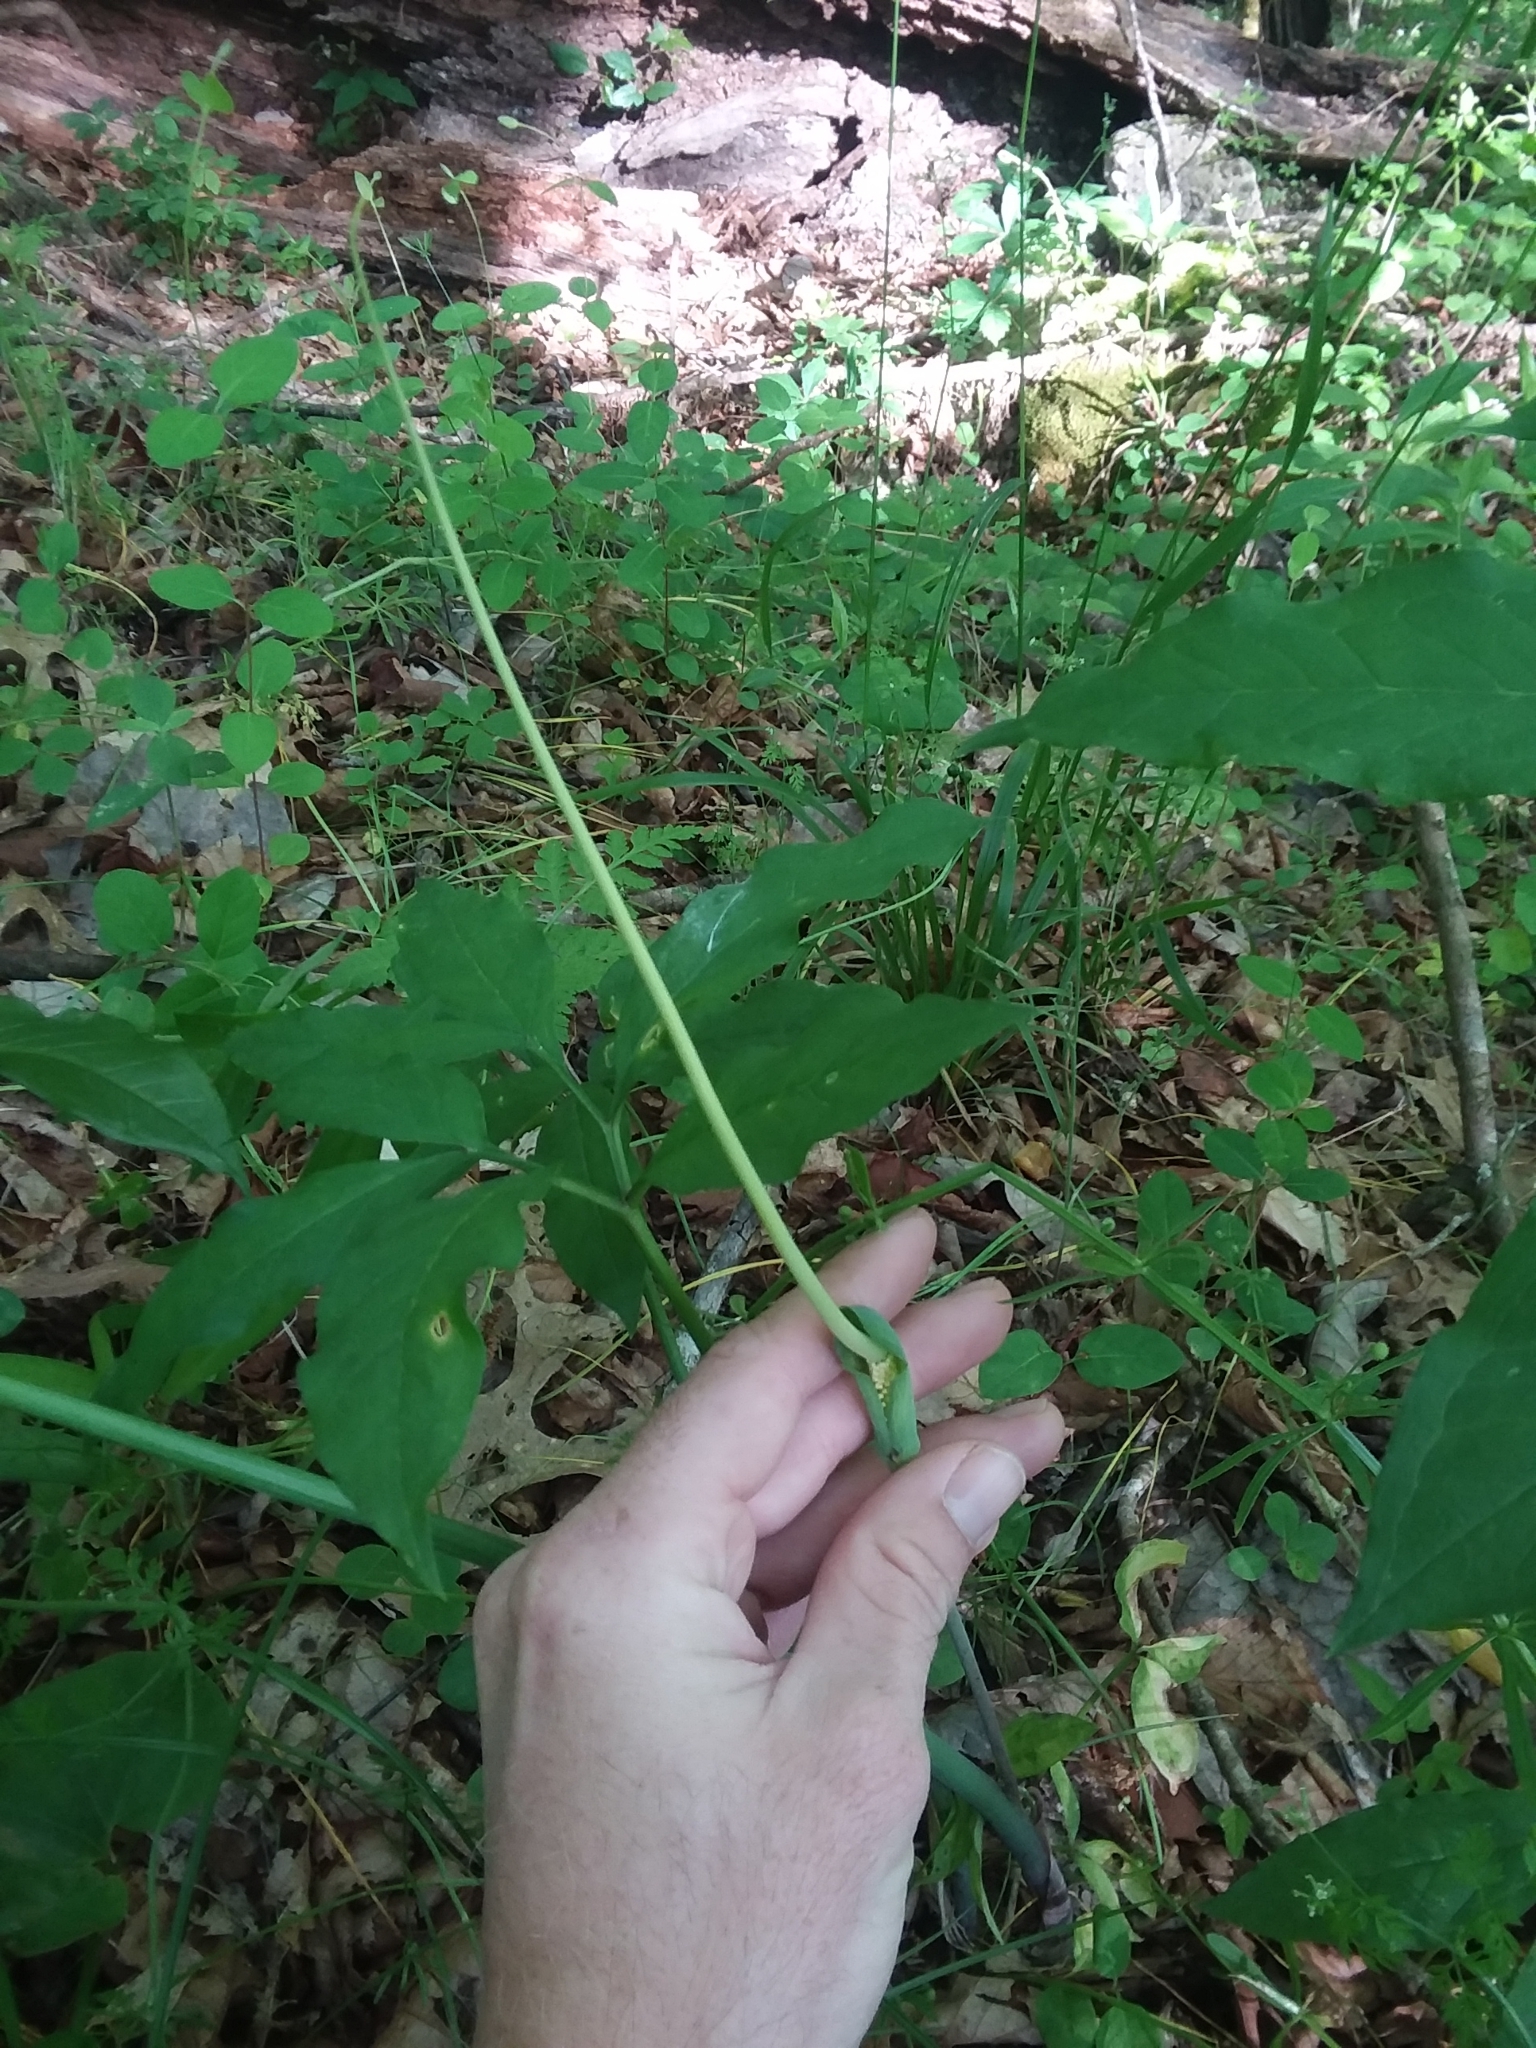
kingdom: Plantae
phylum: Tracheophyta
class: Liliopsida
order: Alismatales
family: Araceae
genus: Arisaema
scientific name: Arisaema dracontium
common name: Dragon-arum
